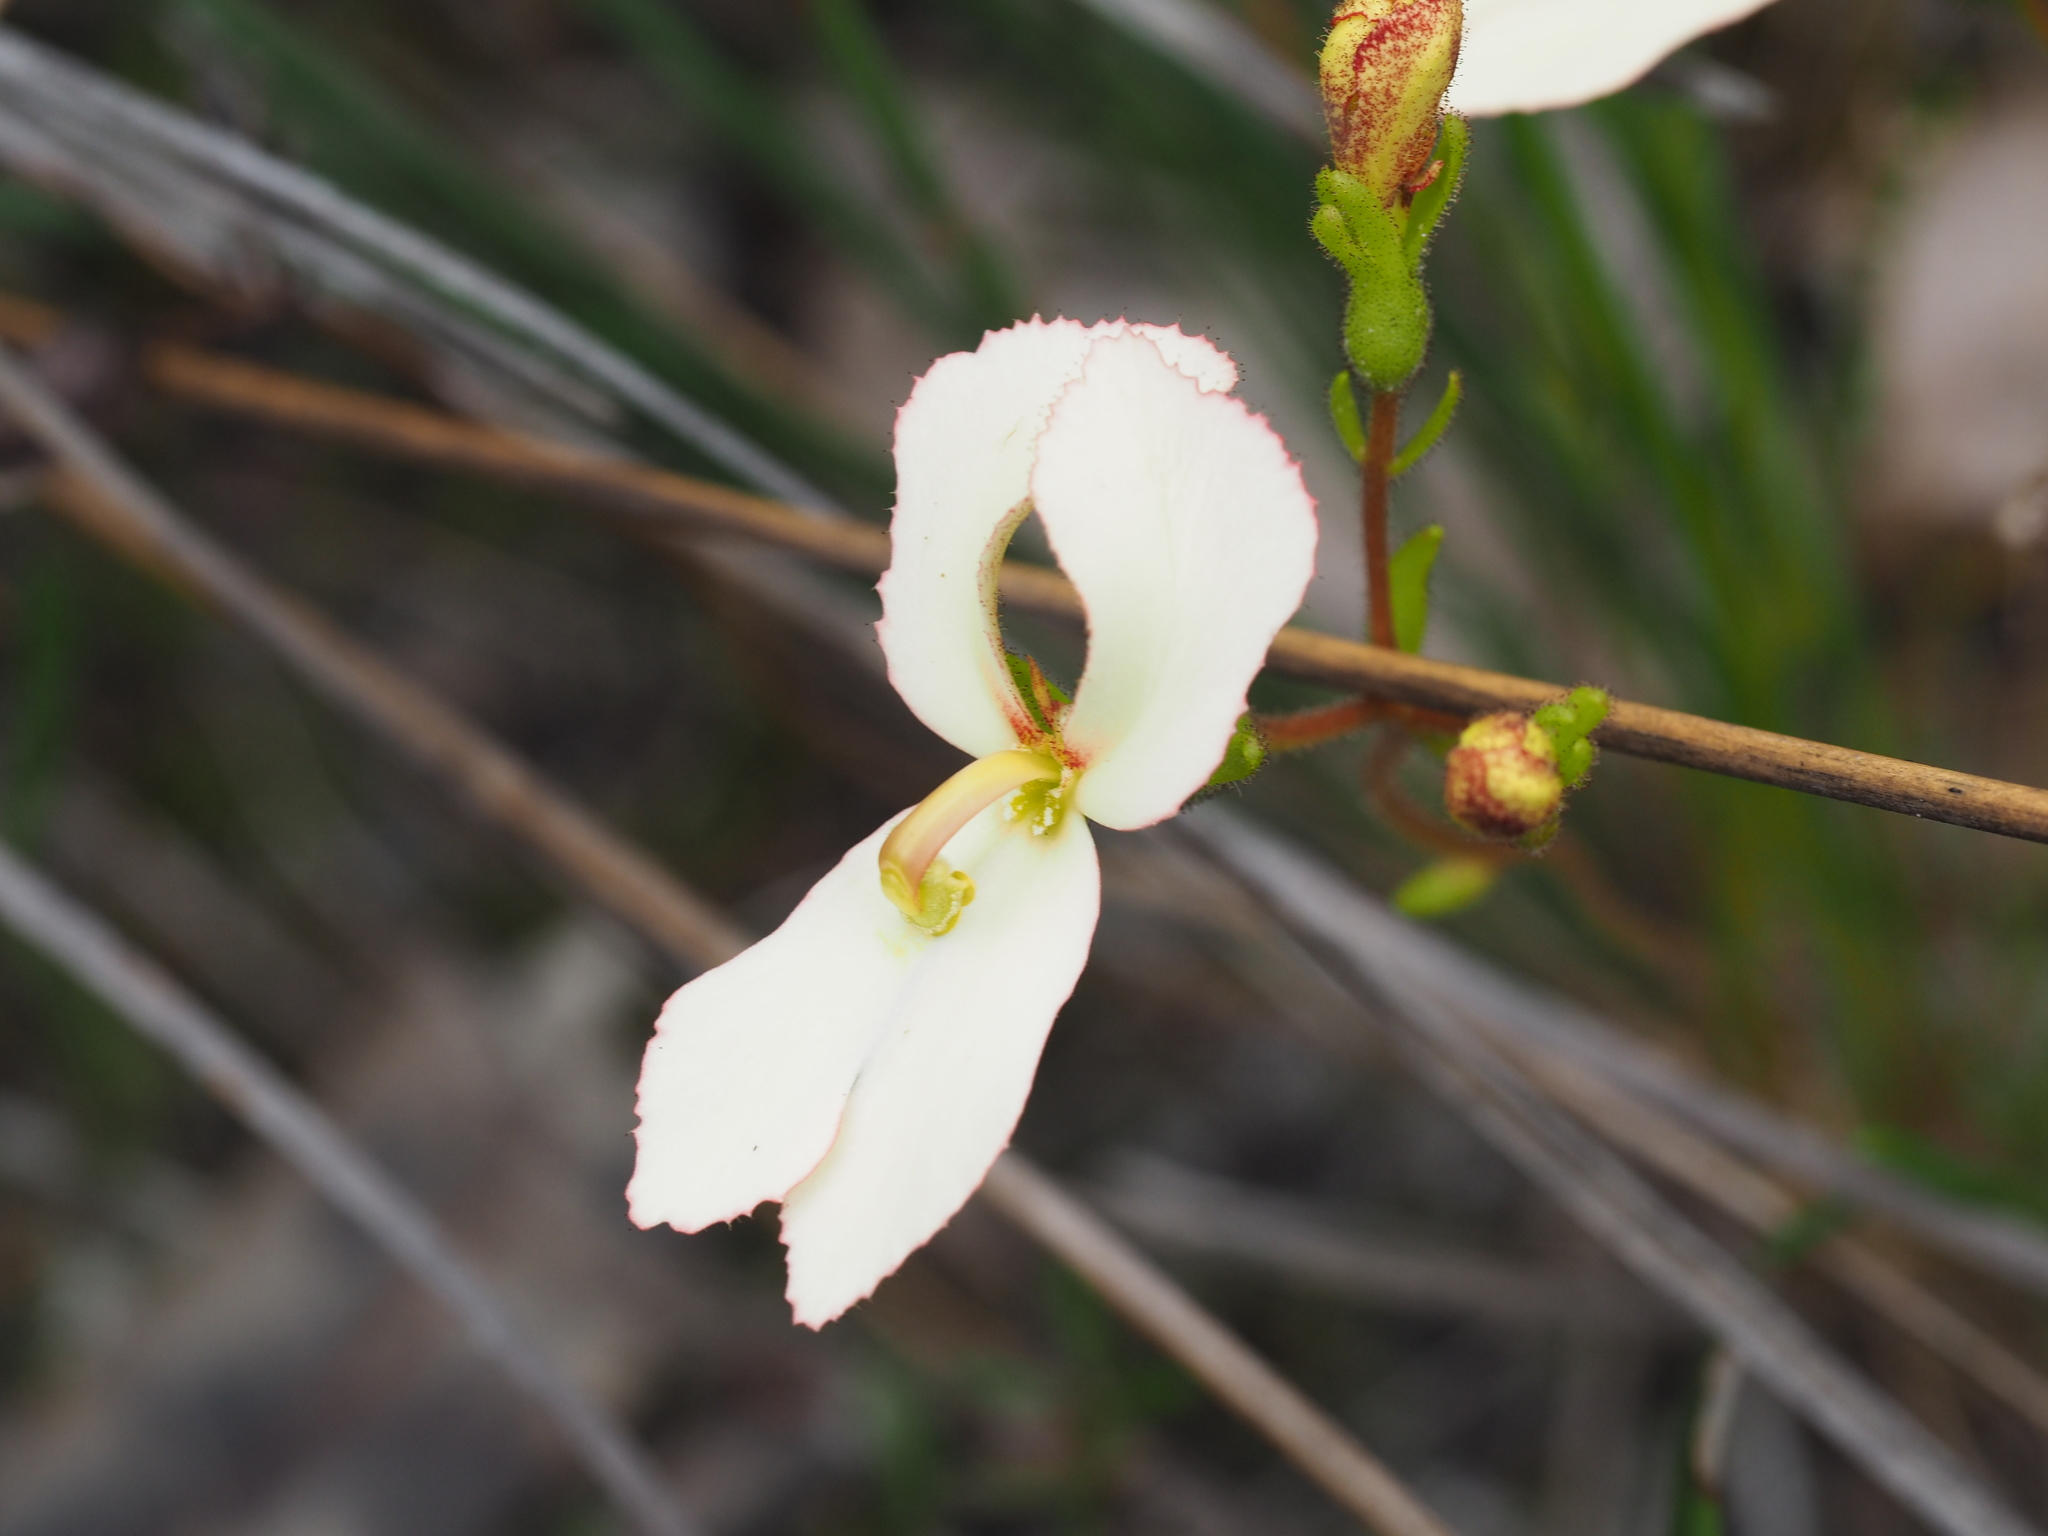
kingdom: Plantae
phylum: Tracheophyta
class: Magnoliopsida
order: Asterales
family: Stylidiaceae
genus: Stylidium
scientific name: Stylidium schoenoides
